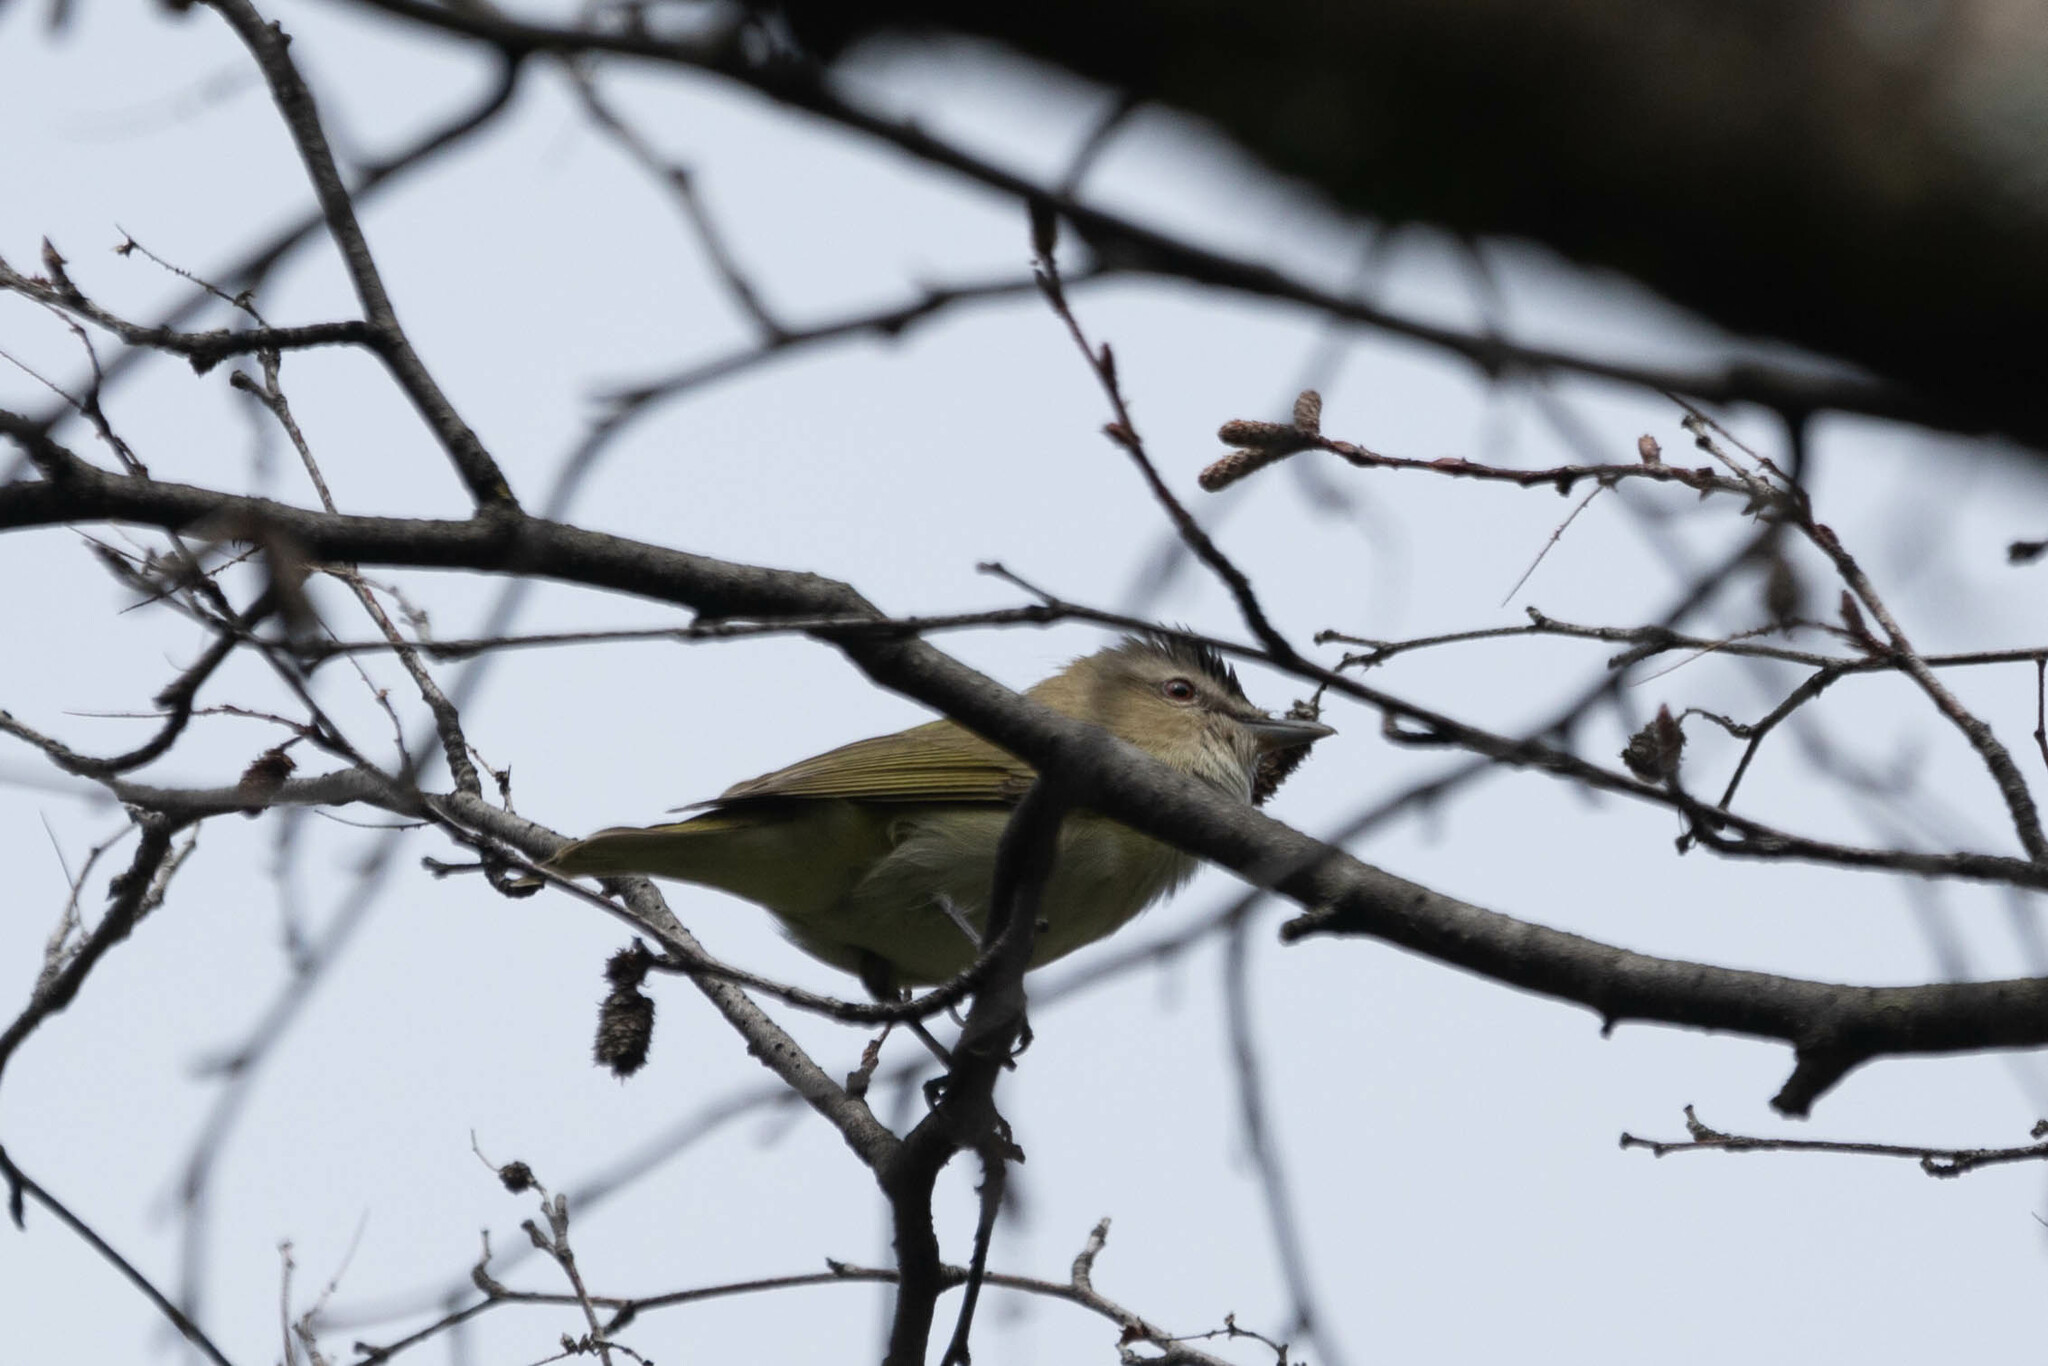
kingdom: Animalia
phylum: Chordata
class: Aves
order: Passeriformes
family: Vireonidae
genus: Vireo
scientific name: Vireo olivaceus
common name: Red-eyed vireo
